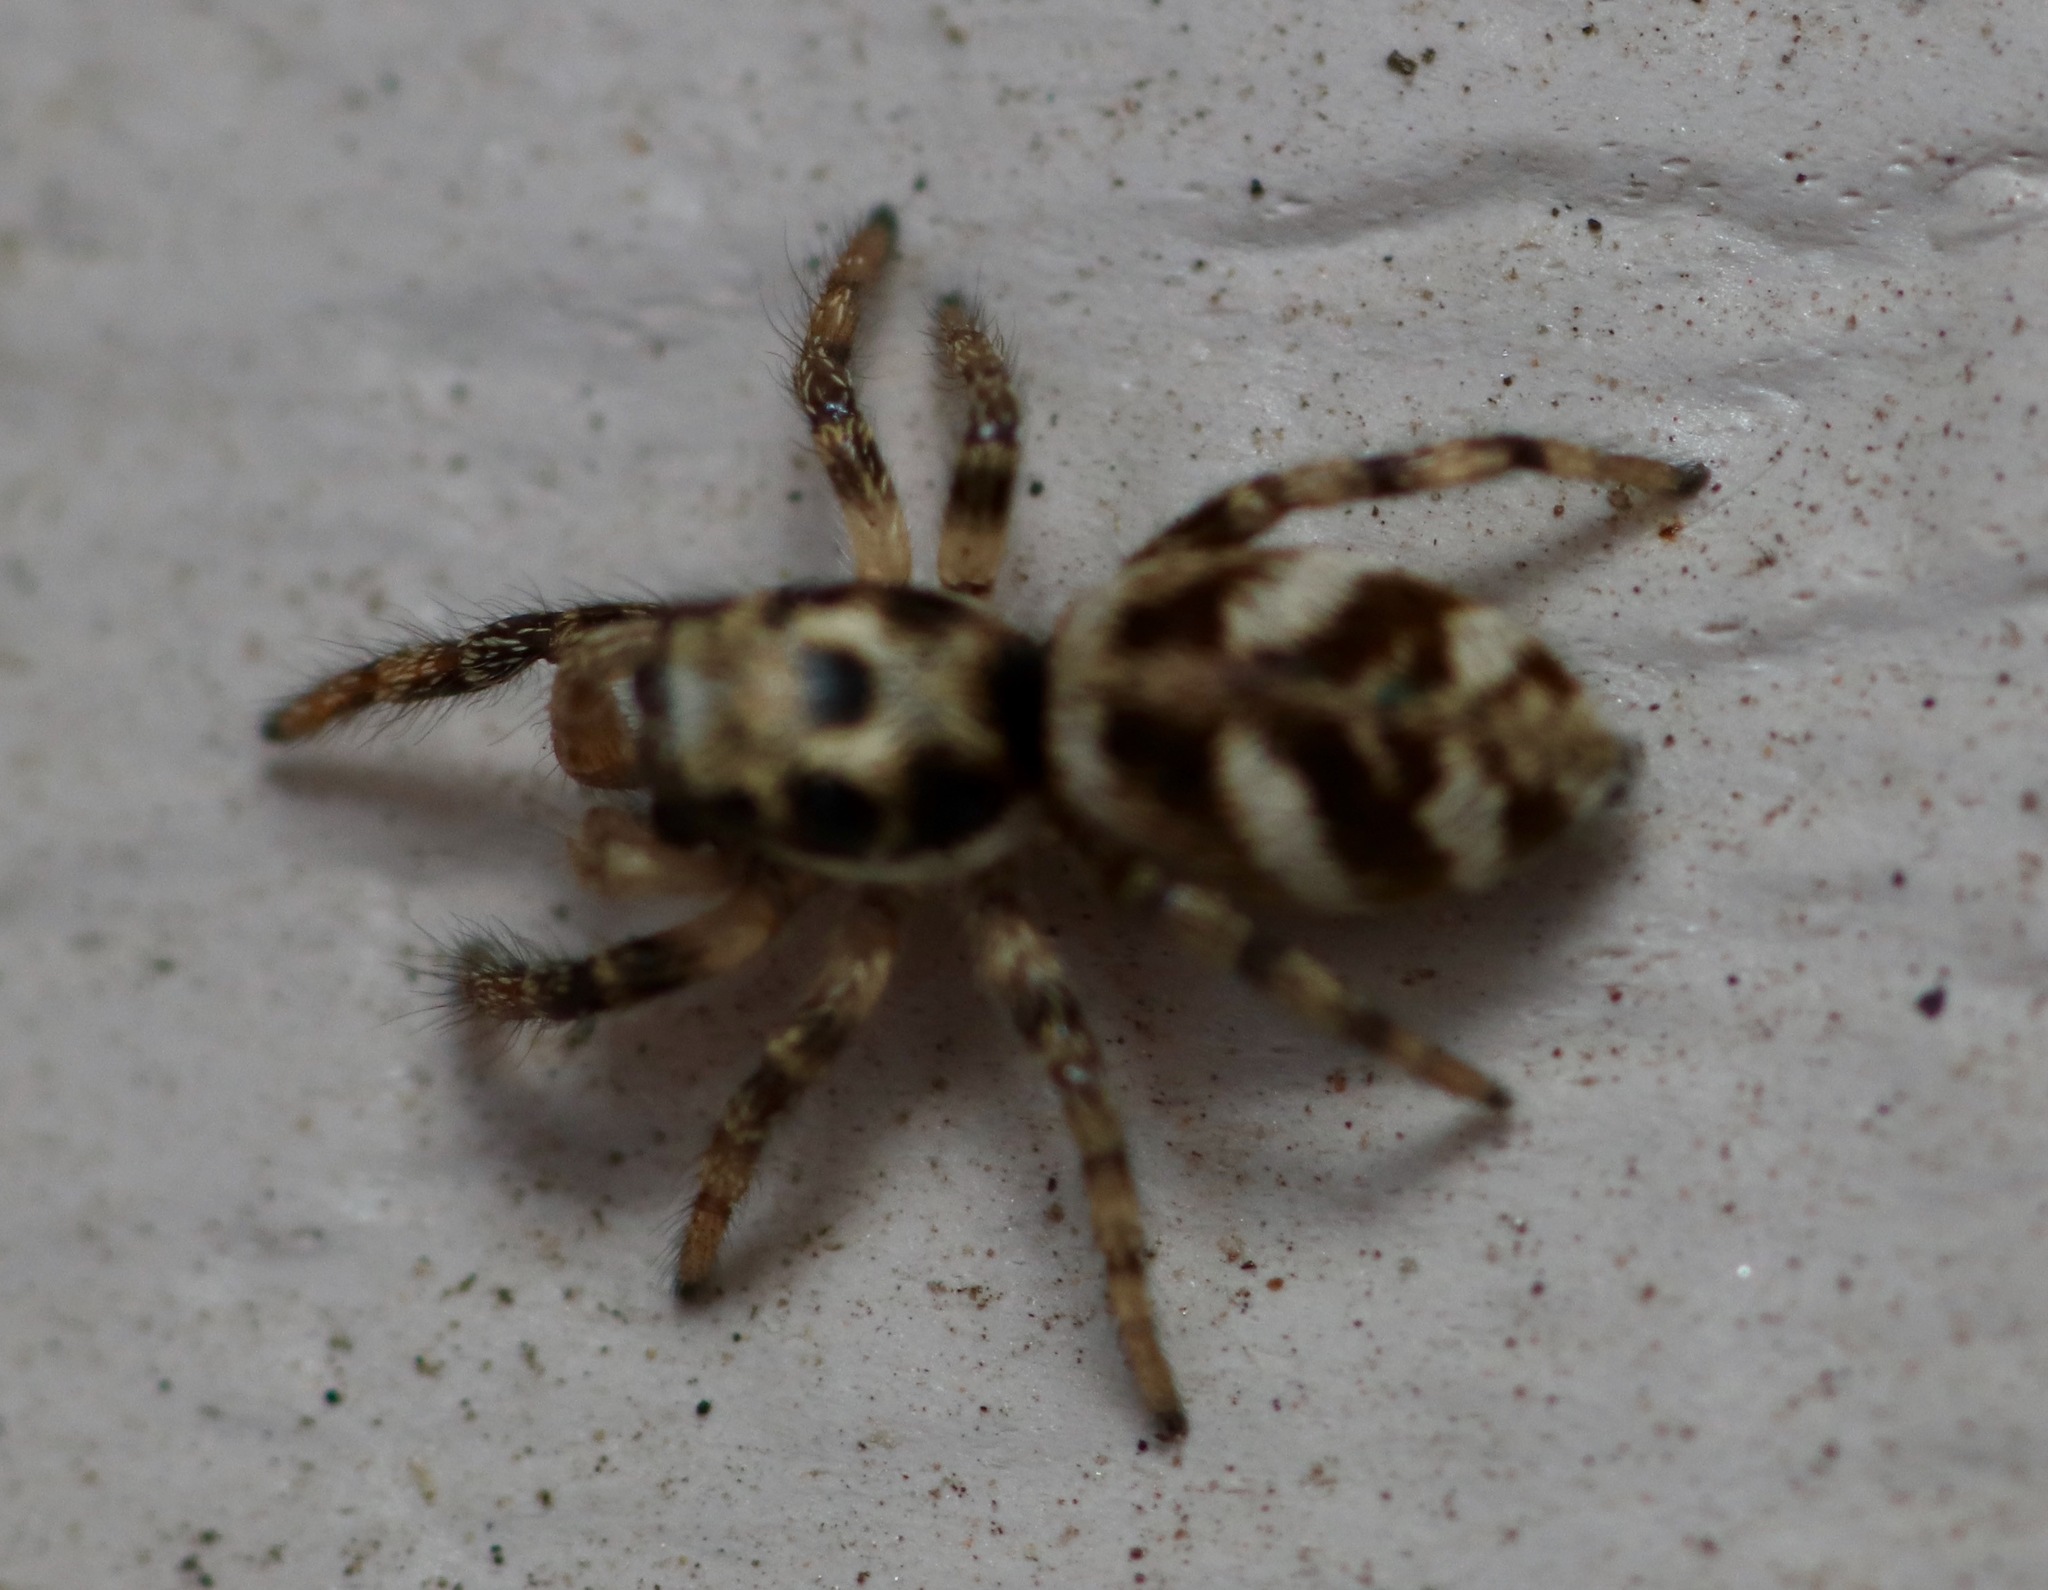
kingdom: Animalia
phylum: Arthropoda
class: Arachnida
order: Araneae
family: Salticidae
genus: Salticus
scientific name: Salticus scenicus
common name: Zebra jumper
